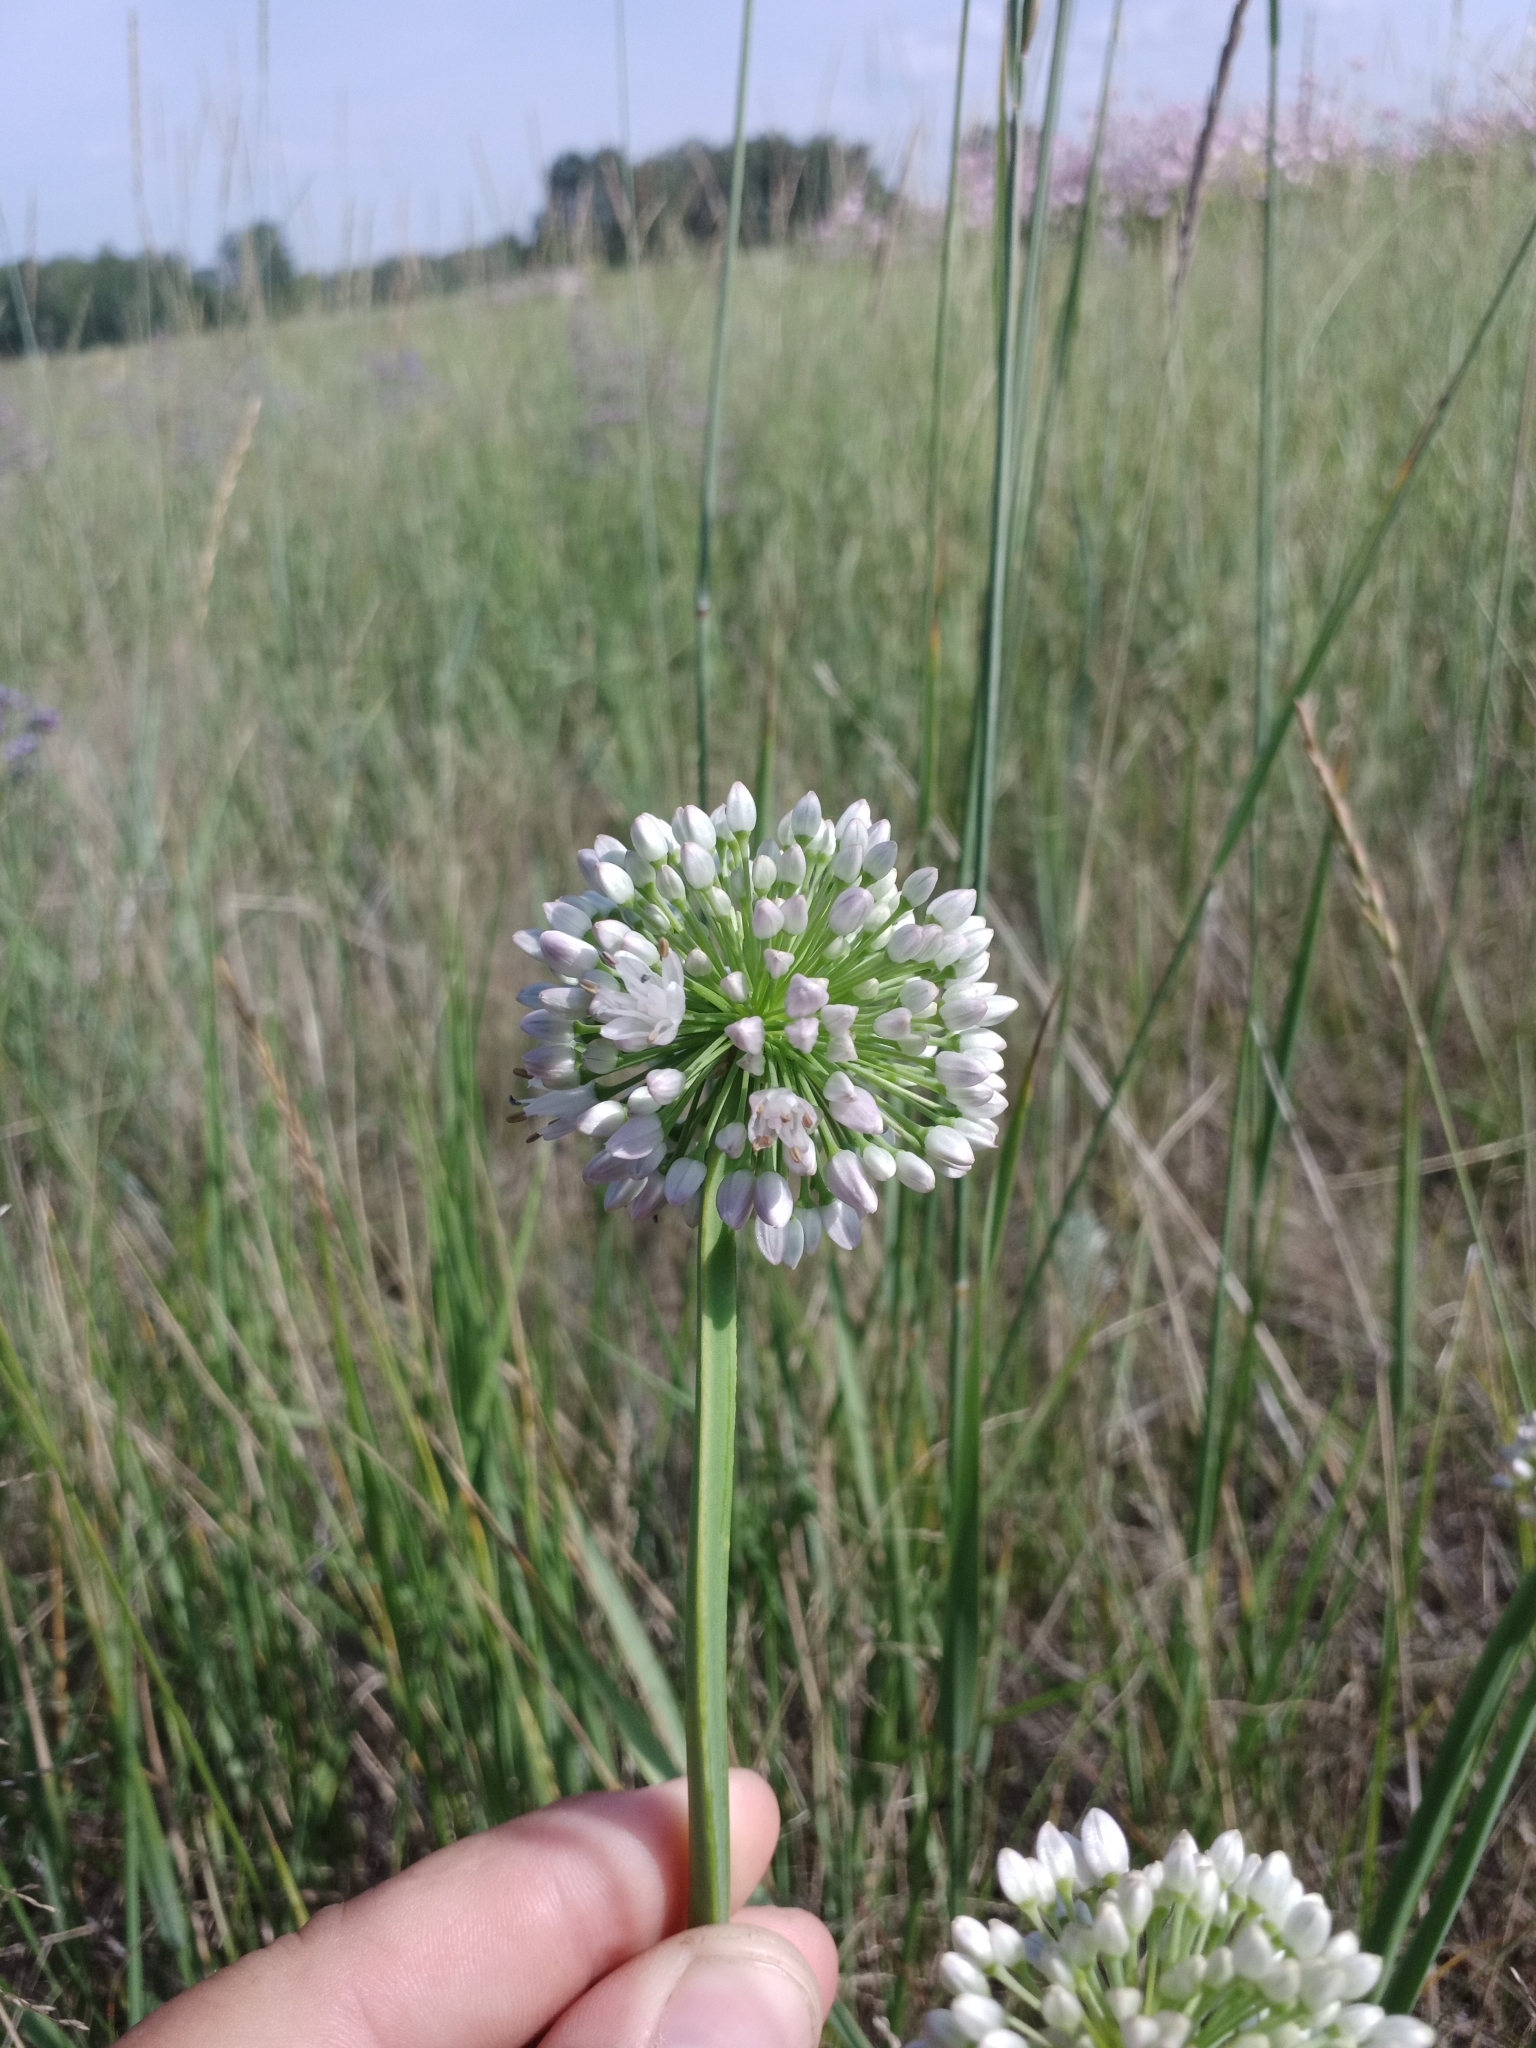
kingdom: Plantae
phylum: Tracheophyta
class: Liliopsida
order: Asparagales
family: Amaryllidaceae
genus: Allium
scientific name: Allium nutans
